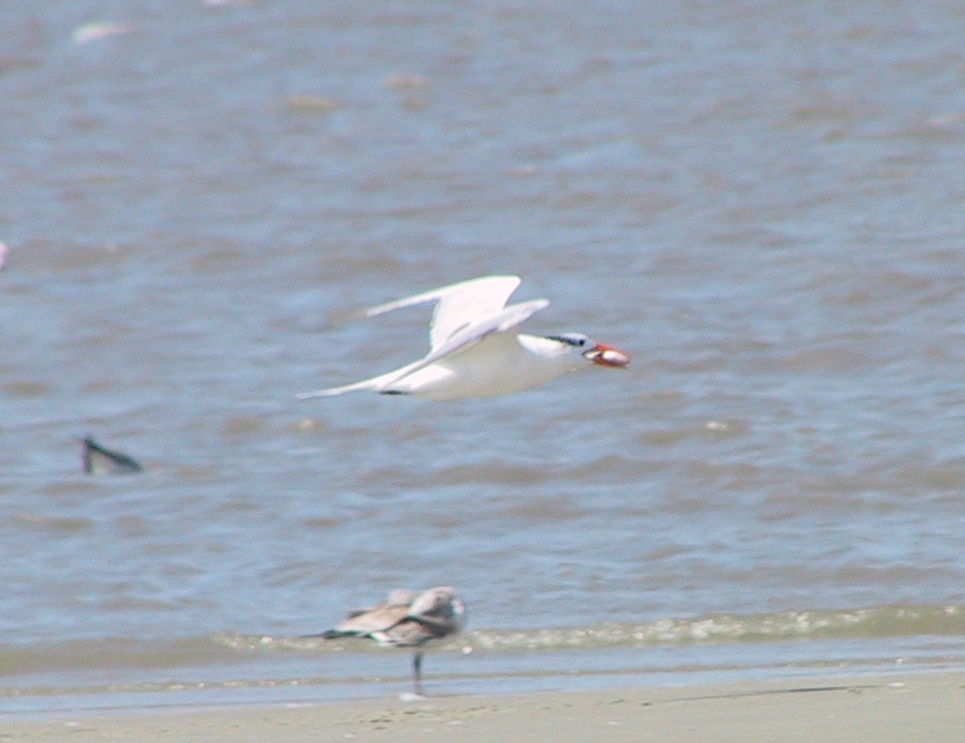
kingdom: Animalia
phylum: Chordata
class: Aves
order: Charadriiformes
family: Laridae
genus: Thalasseus
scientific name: Thalasseus maximus
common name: Royal tern
